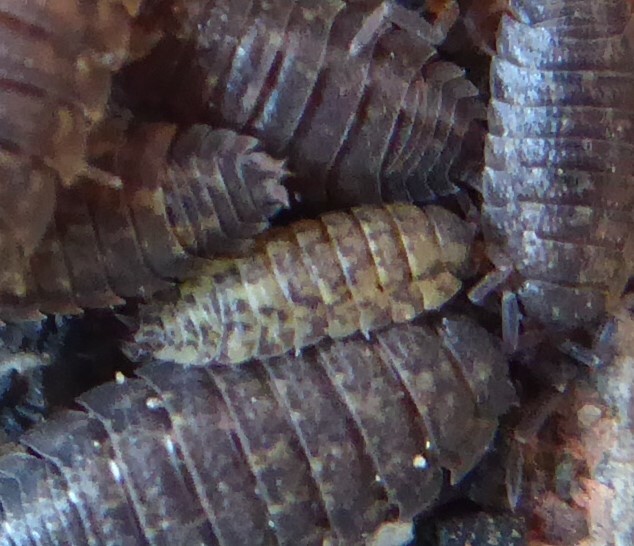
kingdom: Animalia
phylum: Arthropoda
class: Malacostraca
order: Isopoda
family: Porcellionidae
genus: Porcellio
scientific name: Porcellio scaber
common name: Common rough woodlouse
